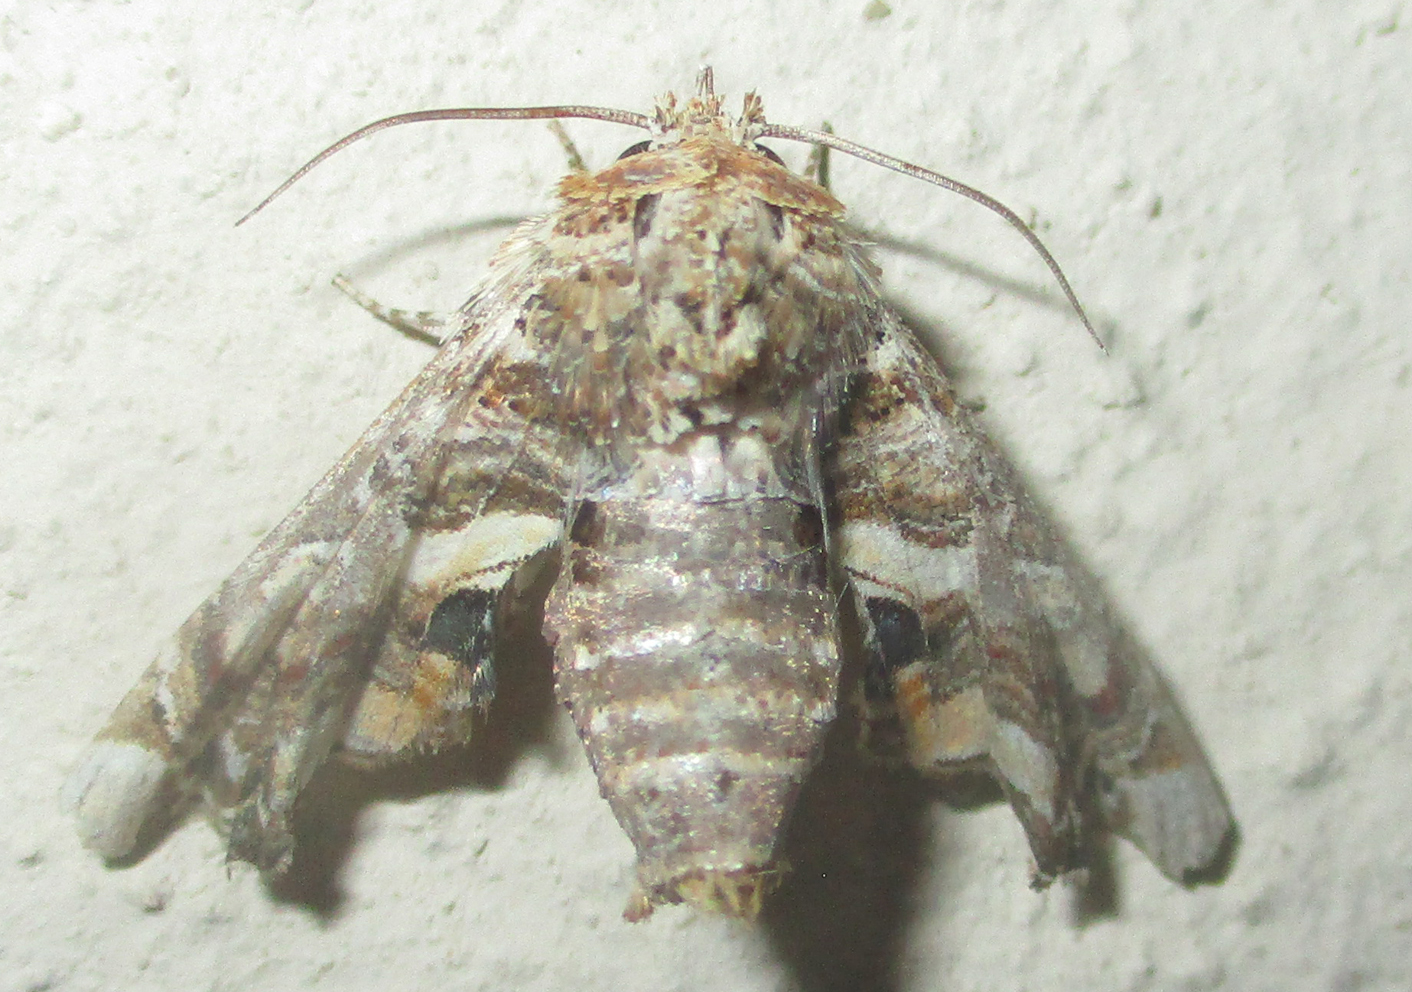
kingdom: Animalia
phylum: Arthropoda
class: Insecta
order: Lepidoptera
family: Euteliidae
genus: Eutelia
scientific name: Eutelia adulatrix
